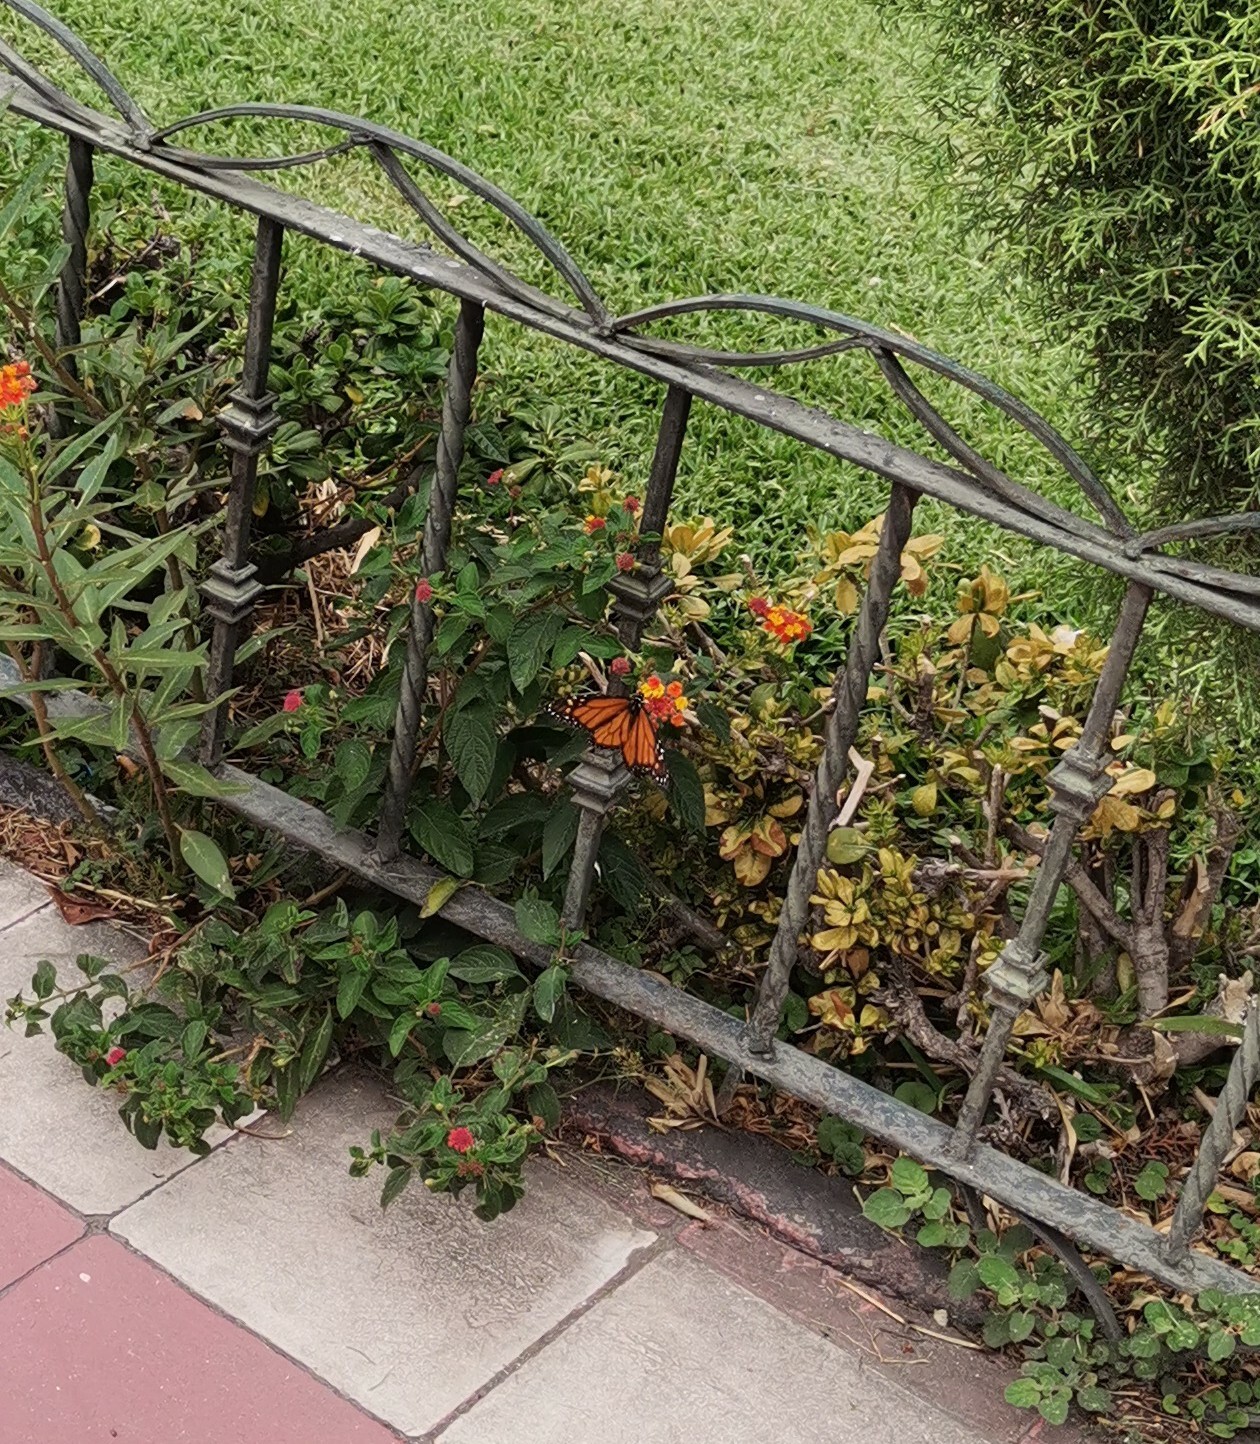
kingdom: Animalia
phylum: Arthropoda
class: Insecta
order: Lepidoptera
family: Nymphalidae
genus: Danaus
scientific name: Danaus plexippus
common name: Monarch
